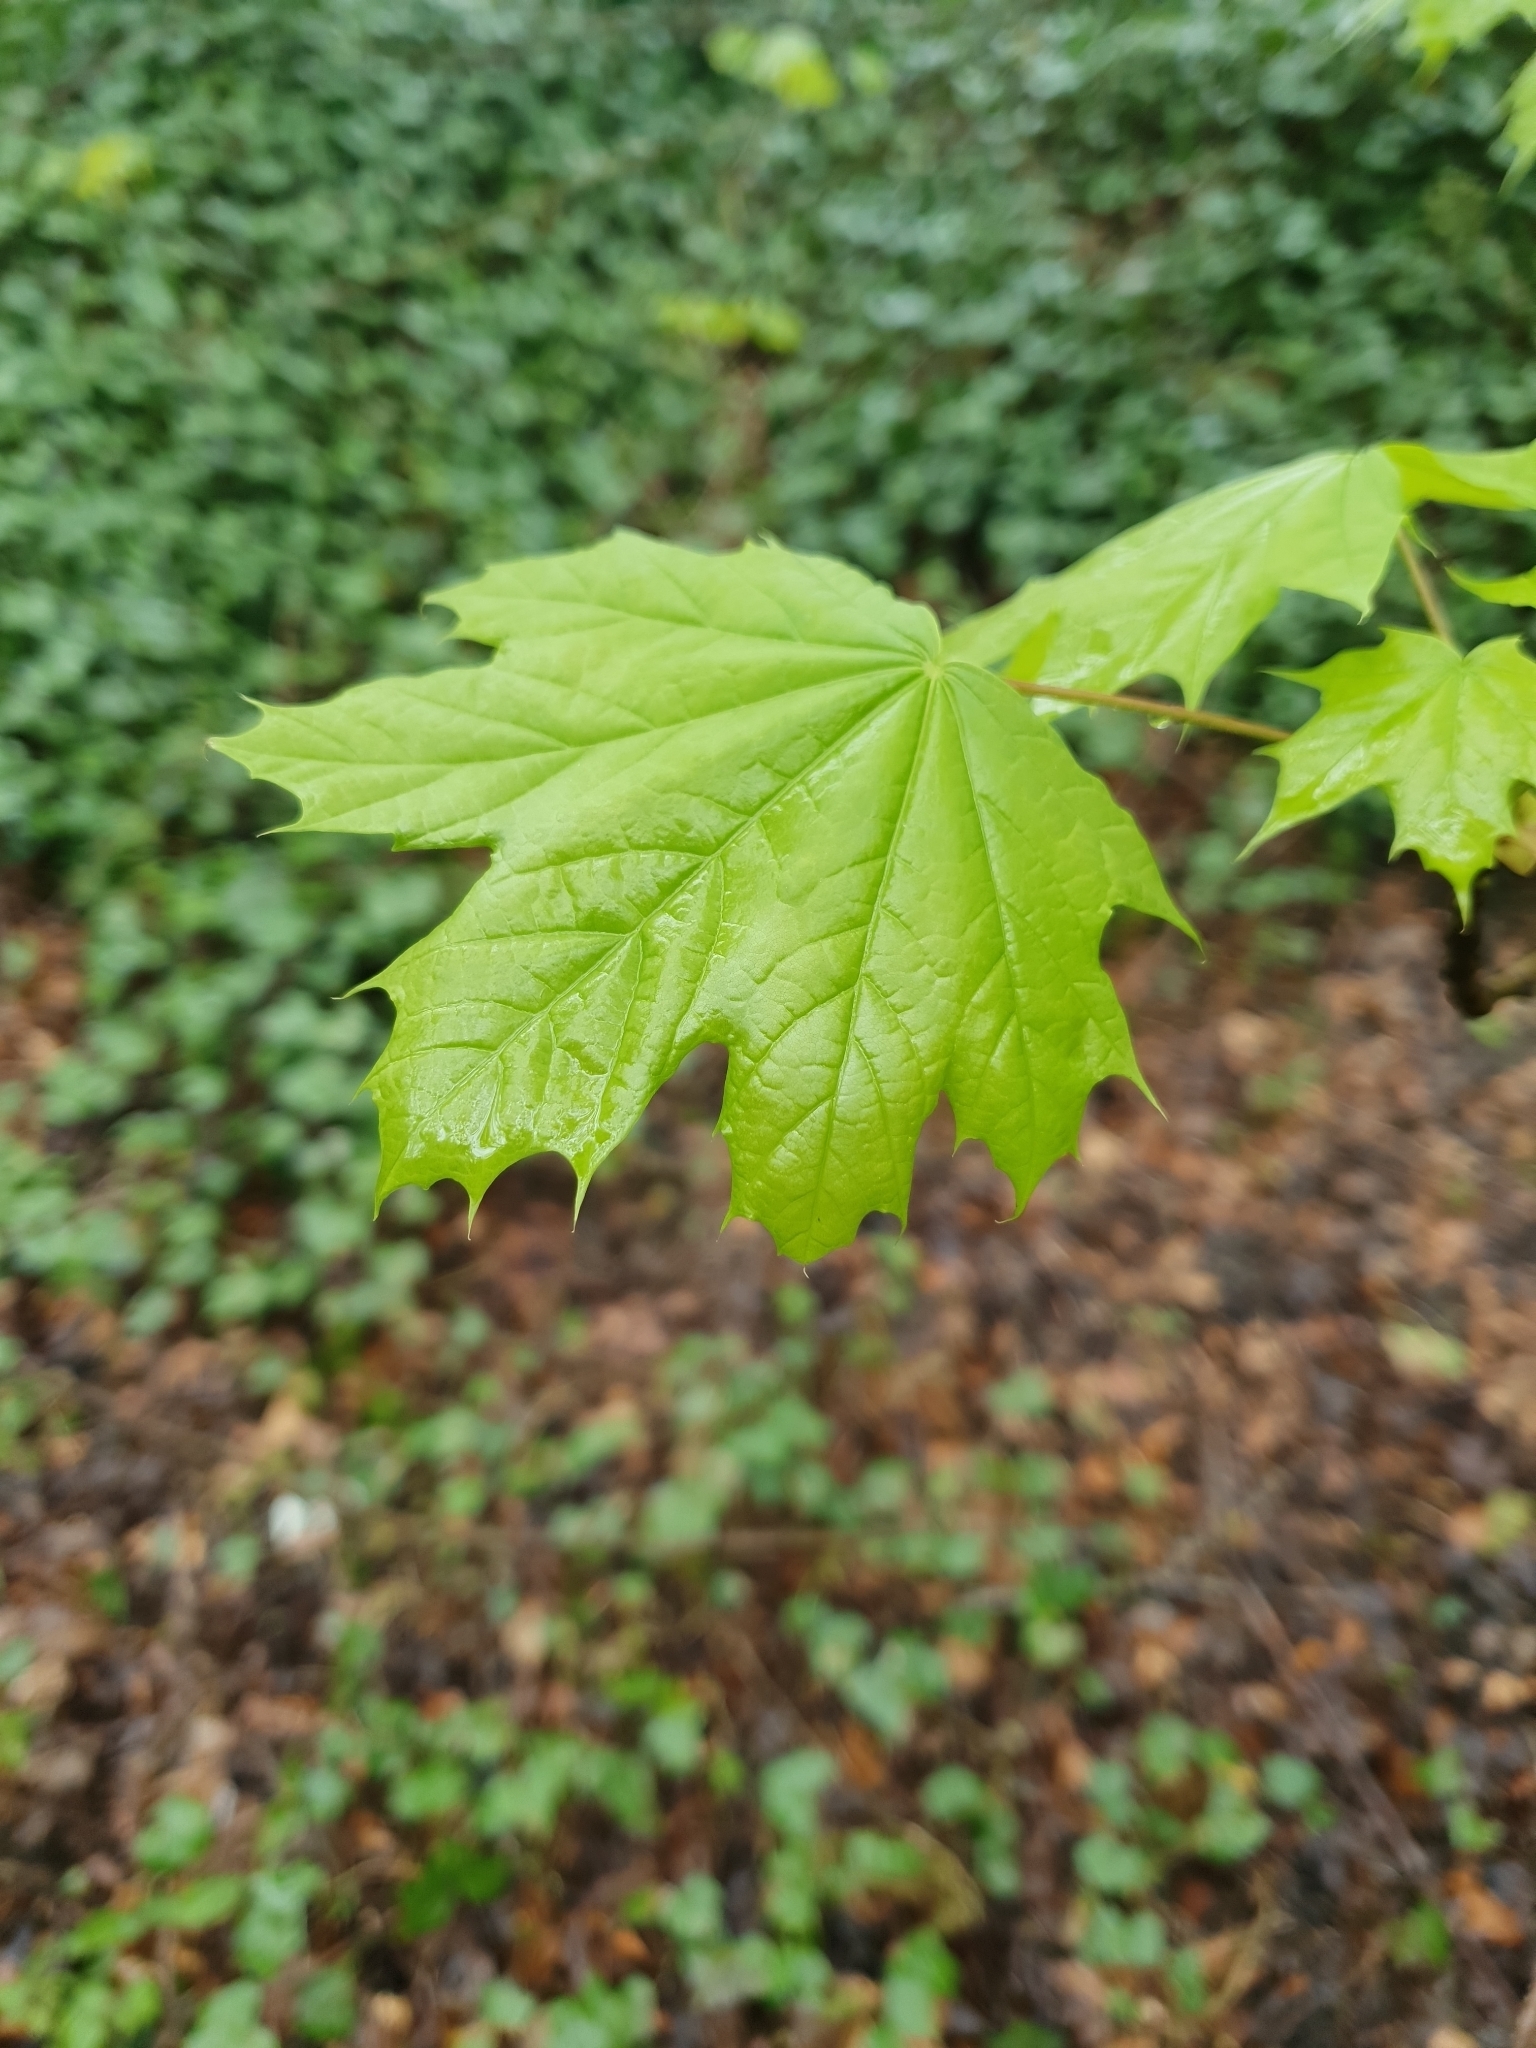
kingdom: Plantae
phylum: Tracheophyta
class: Magnoliopsida
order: Sapindales
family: Sapindaceae
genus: Acer
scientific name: Acer platanoides
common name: Norway maple
